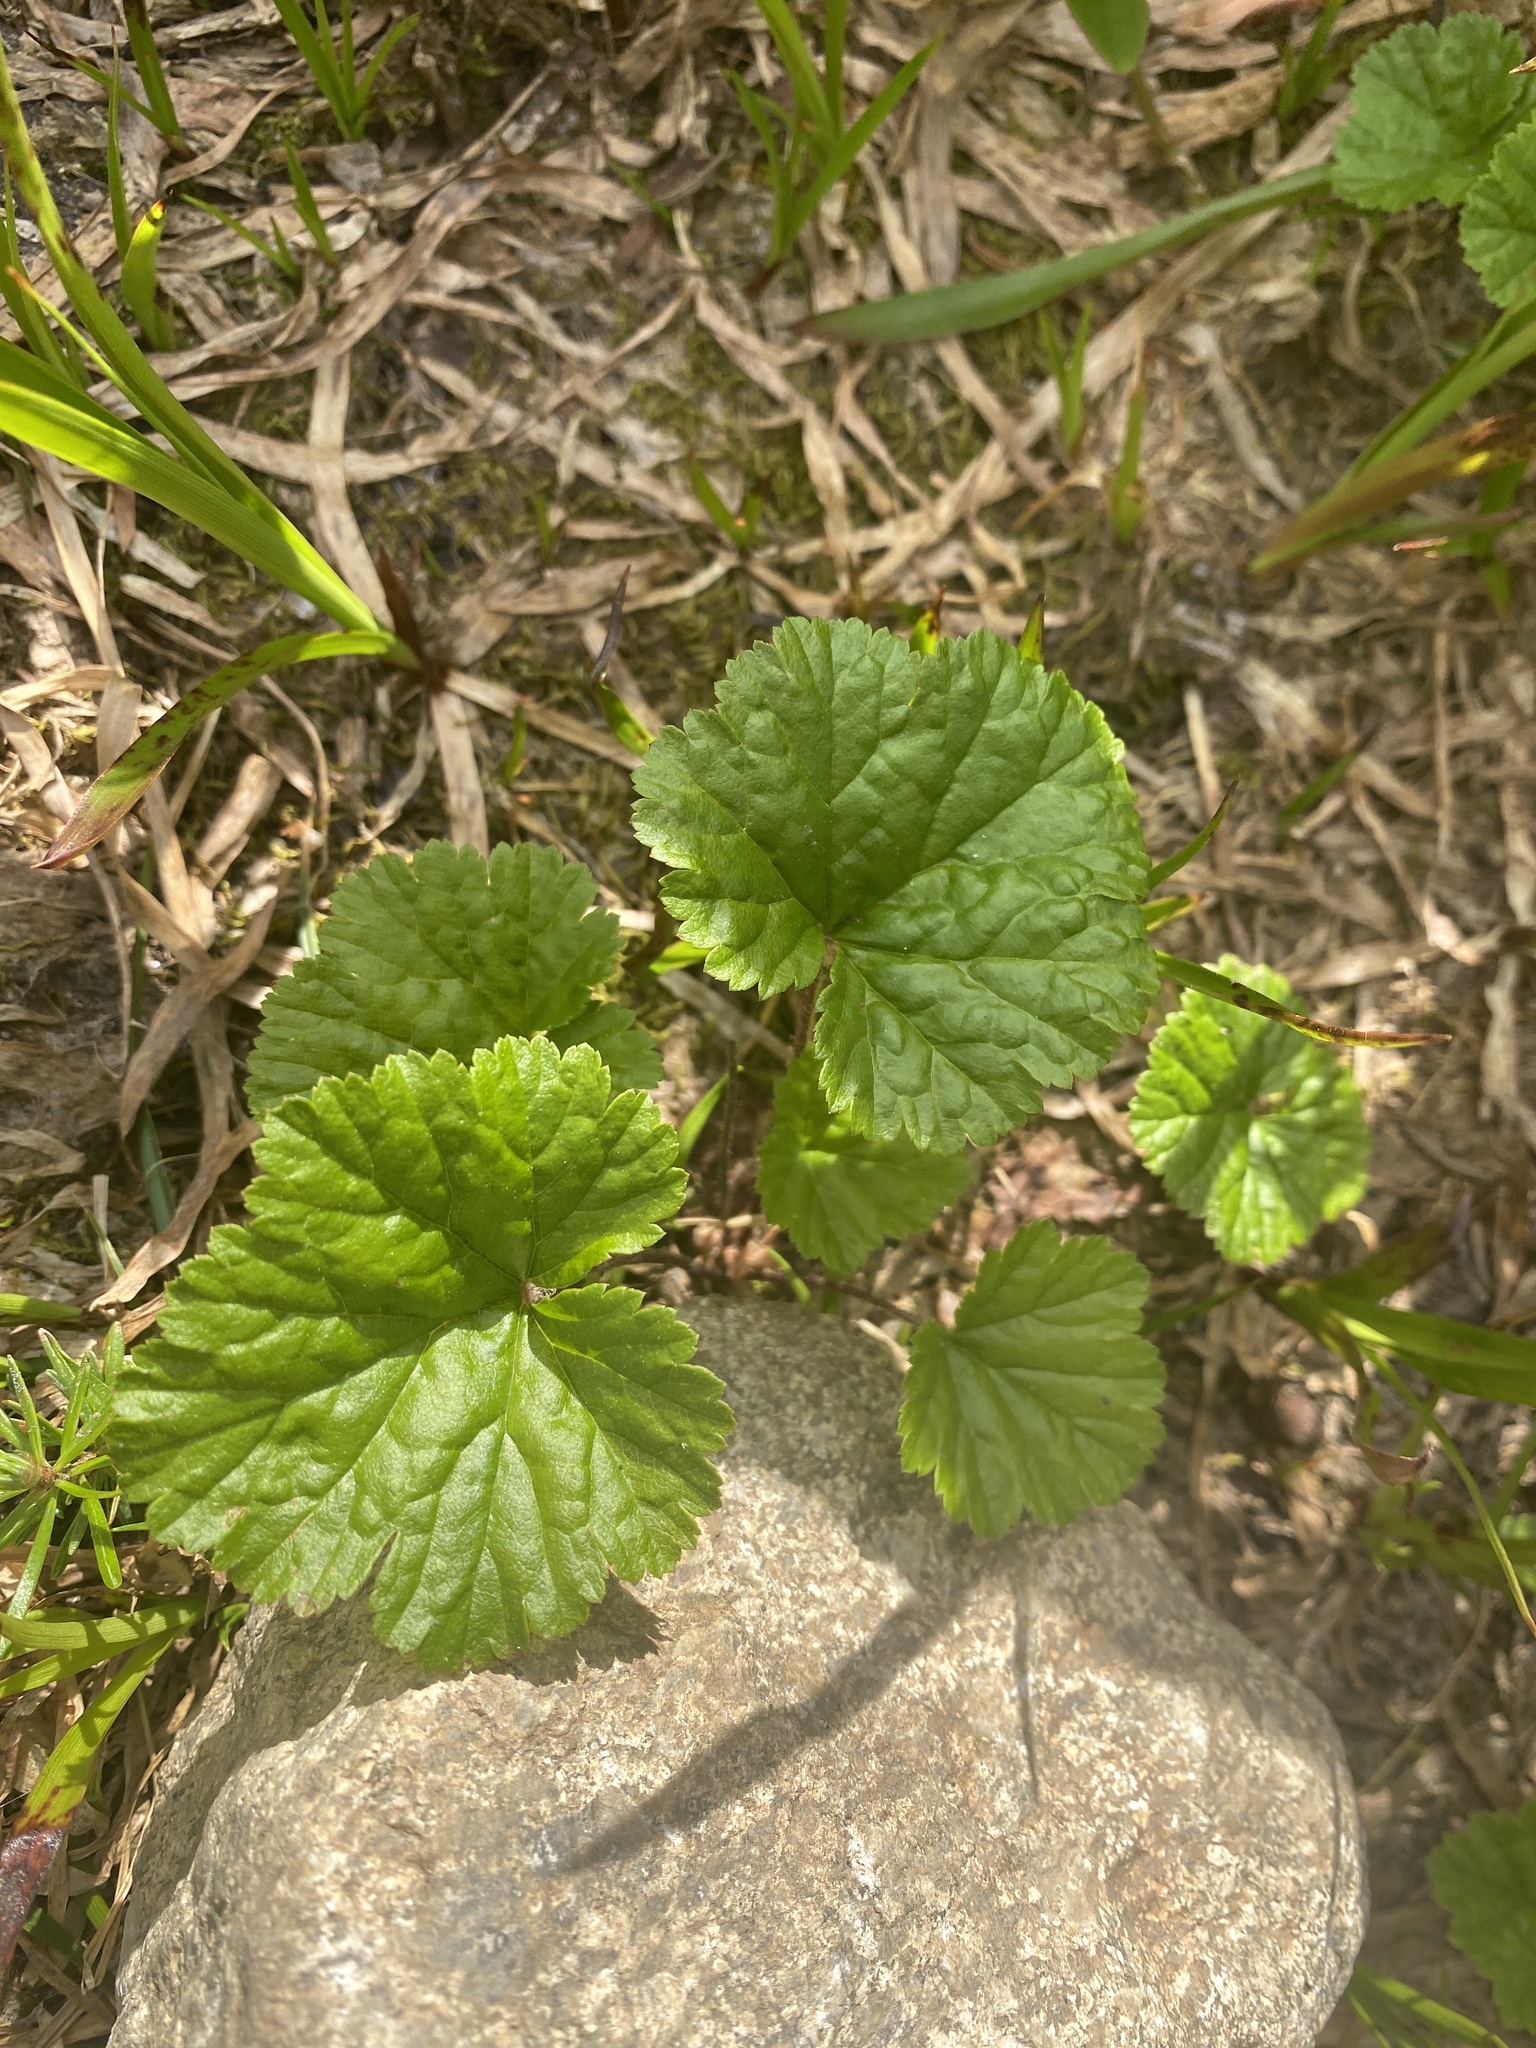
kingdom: Plantae
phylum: Tracheophyta
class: Magnoliopsida
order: Rosales
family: Rosaceae
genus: Geum
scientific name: Geum macrophyllum
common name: Large-leaved avens
